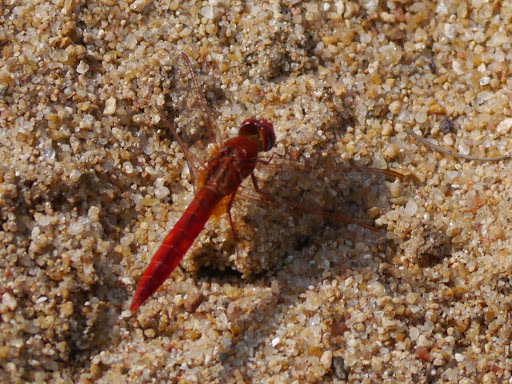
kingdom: Animalia
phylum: Arthropoda
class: Insecta
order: Odonata
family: Libellulidae
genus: Crocothemis
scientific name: Crocothemis erythraea
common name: Scarlet dragonfly
